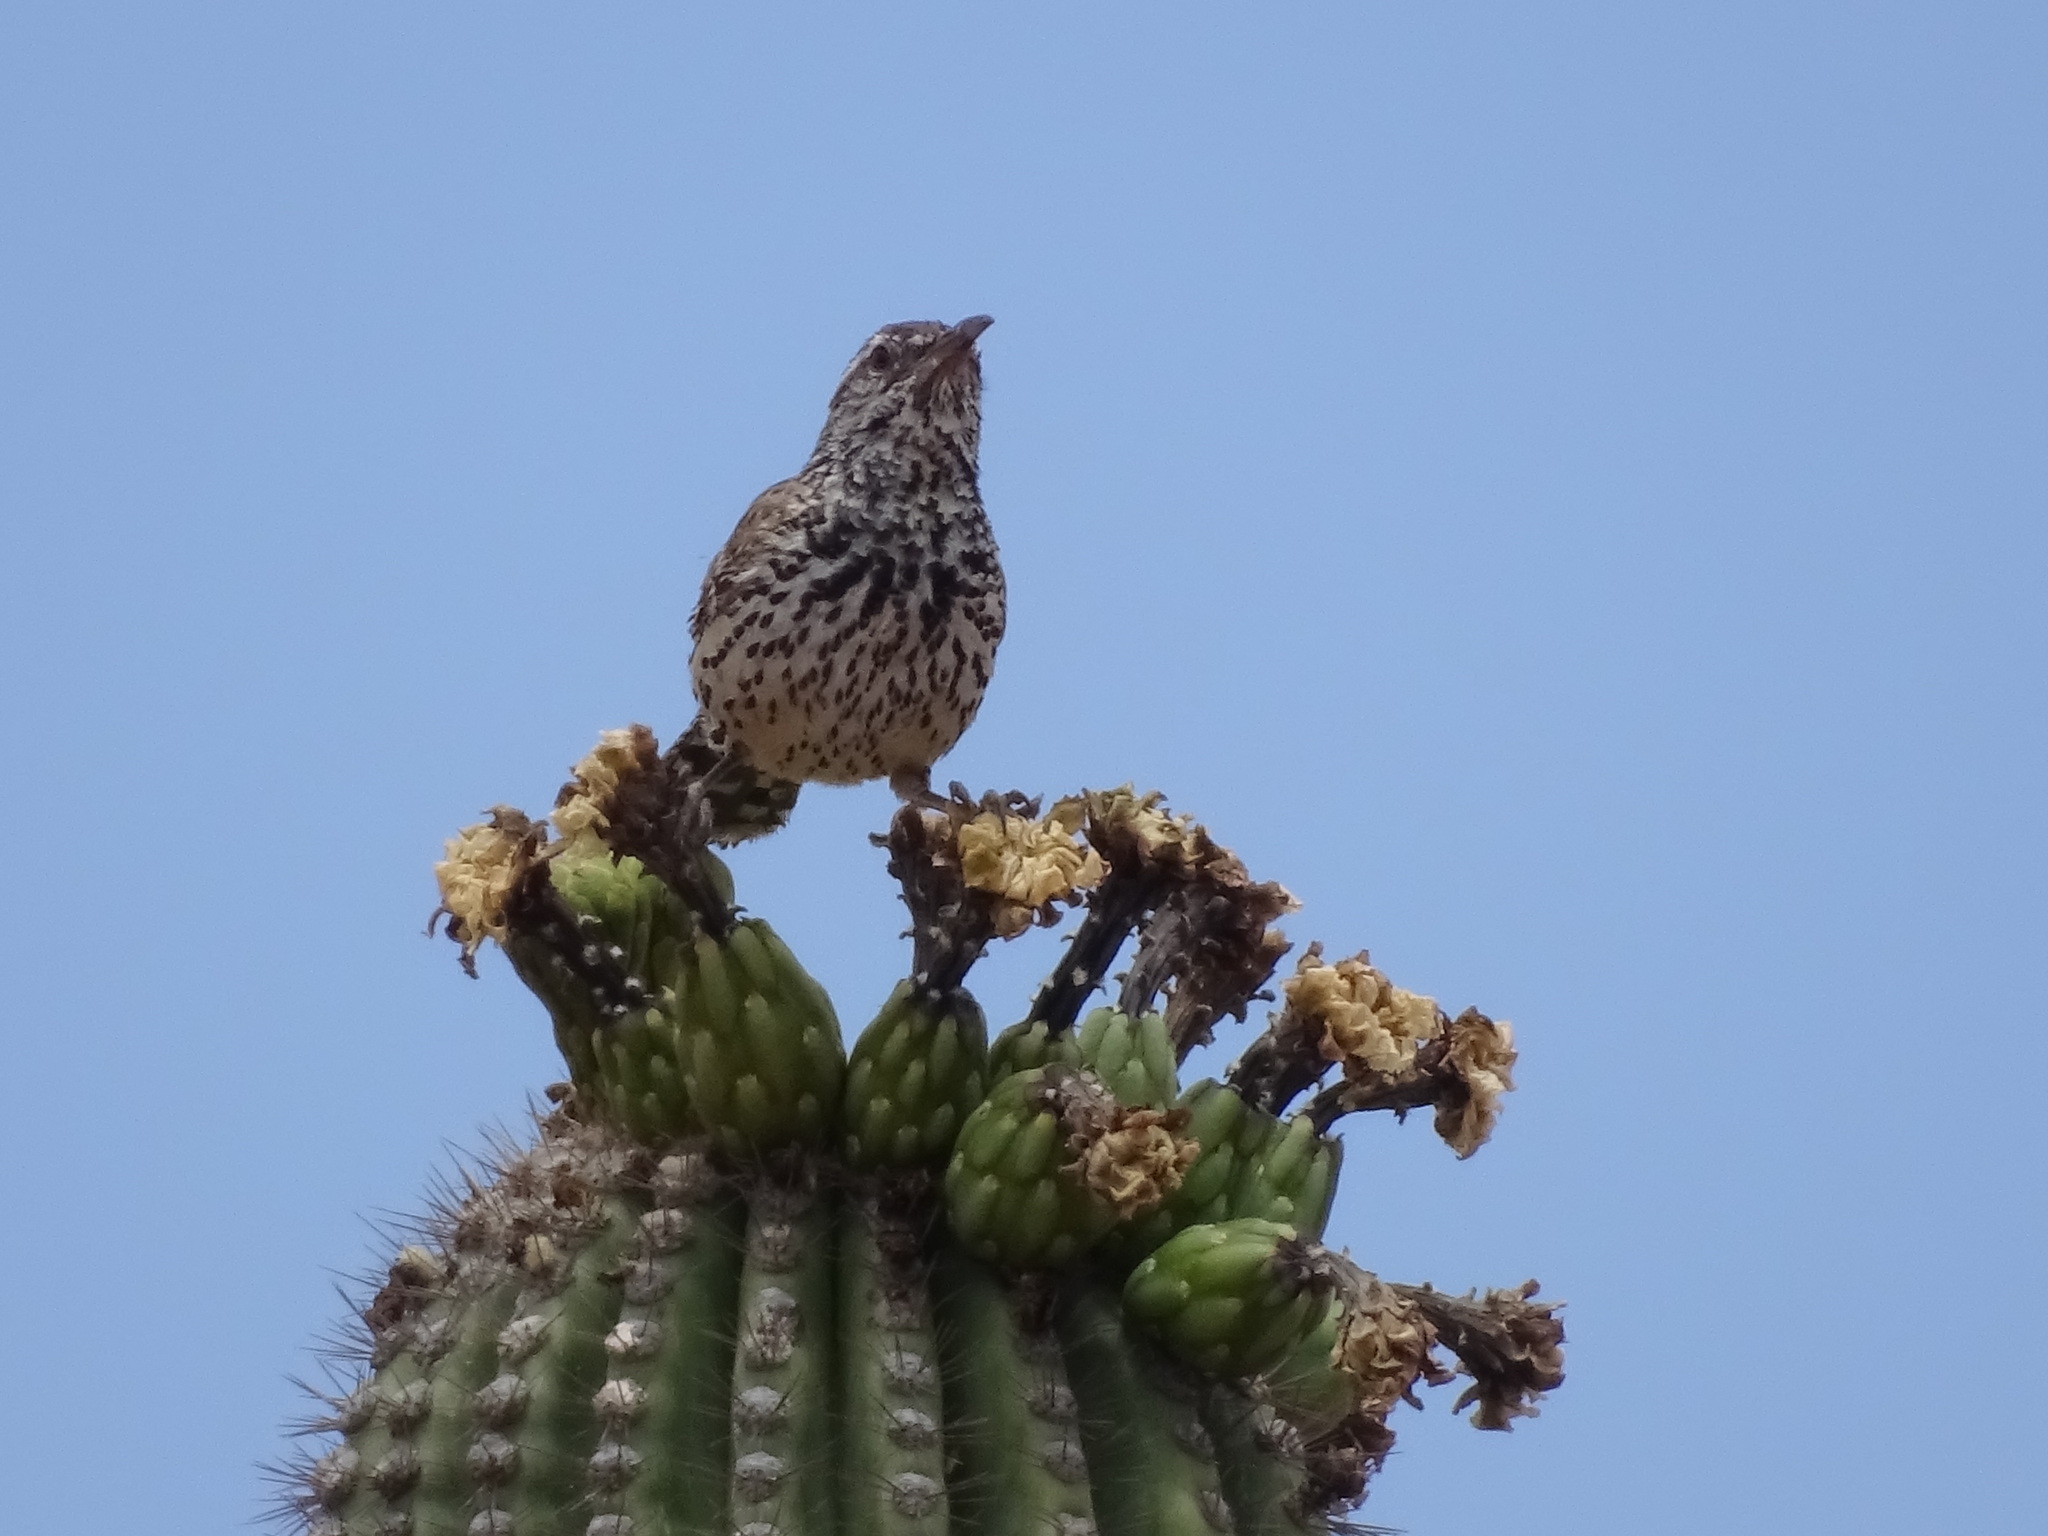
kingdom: Animalia
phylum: Chordata
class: Aves
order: Passeriformes
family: Troglodytidae
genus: Campylorhynchus
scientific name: Campylorhynchus brunneicapillus
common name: Cactus wren
